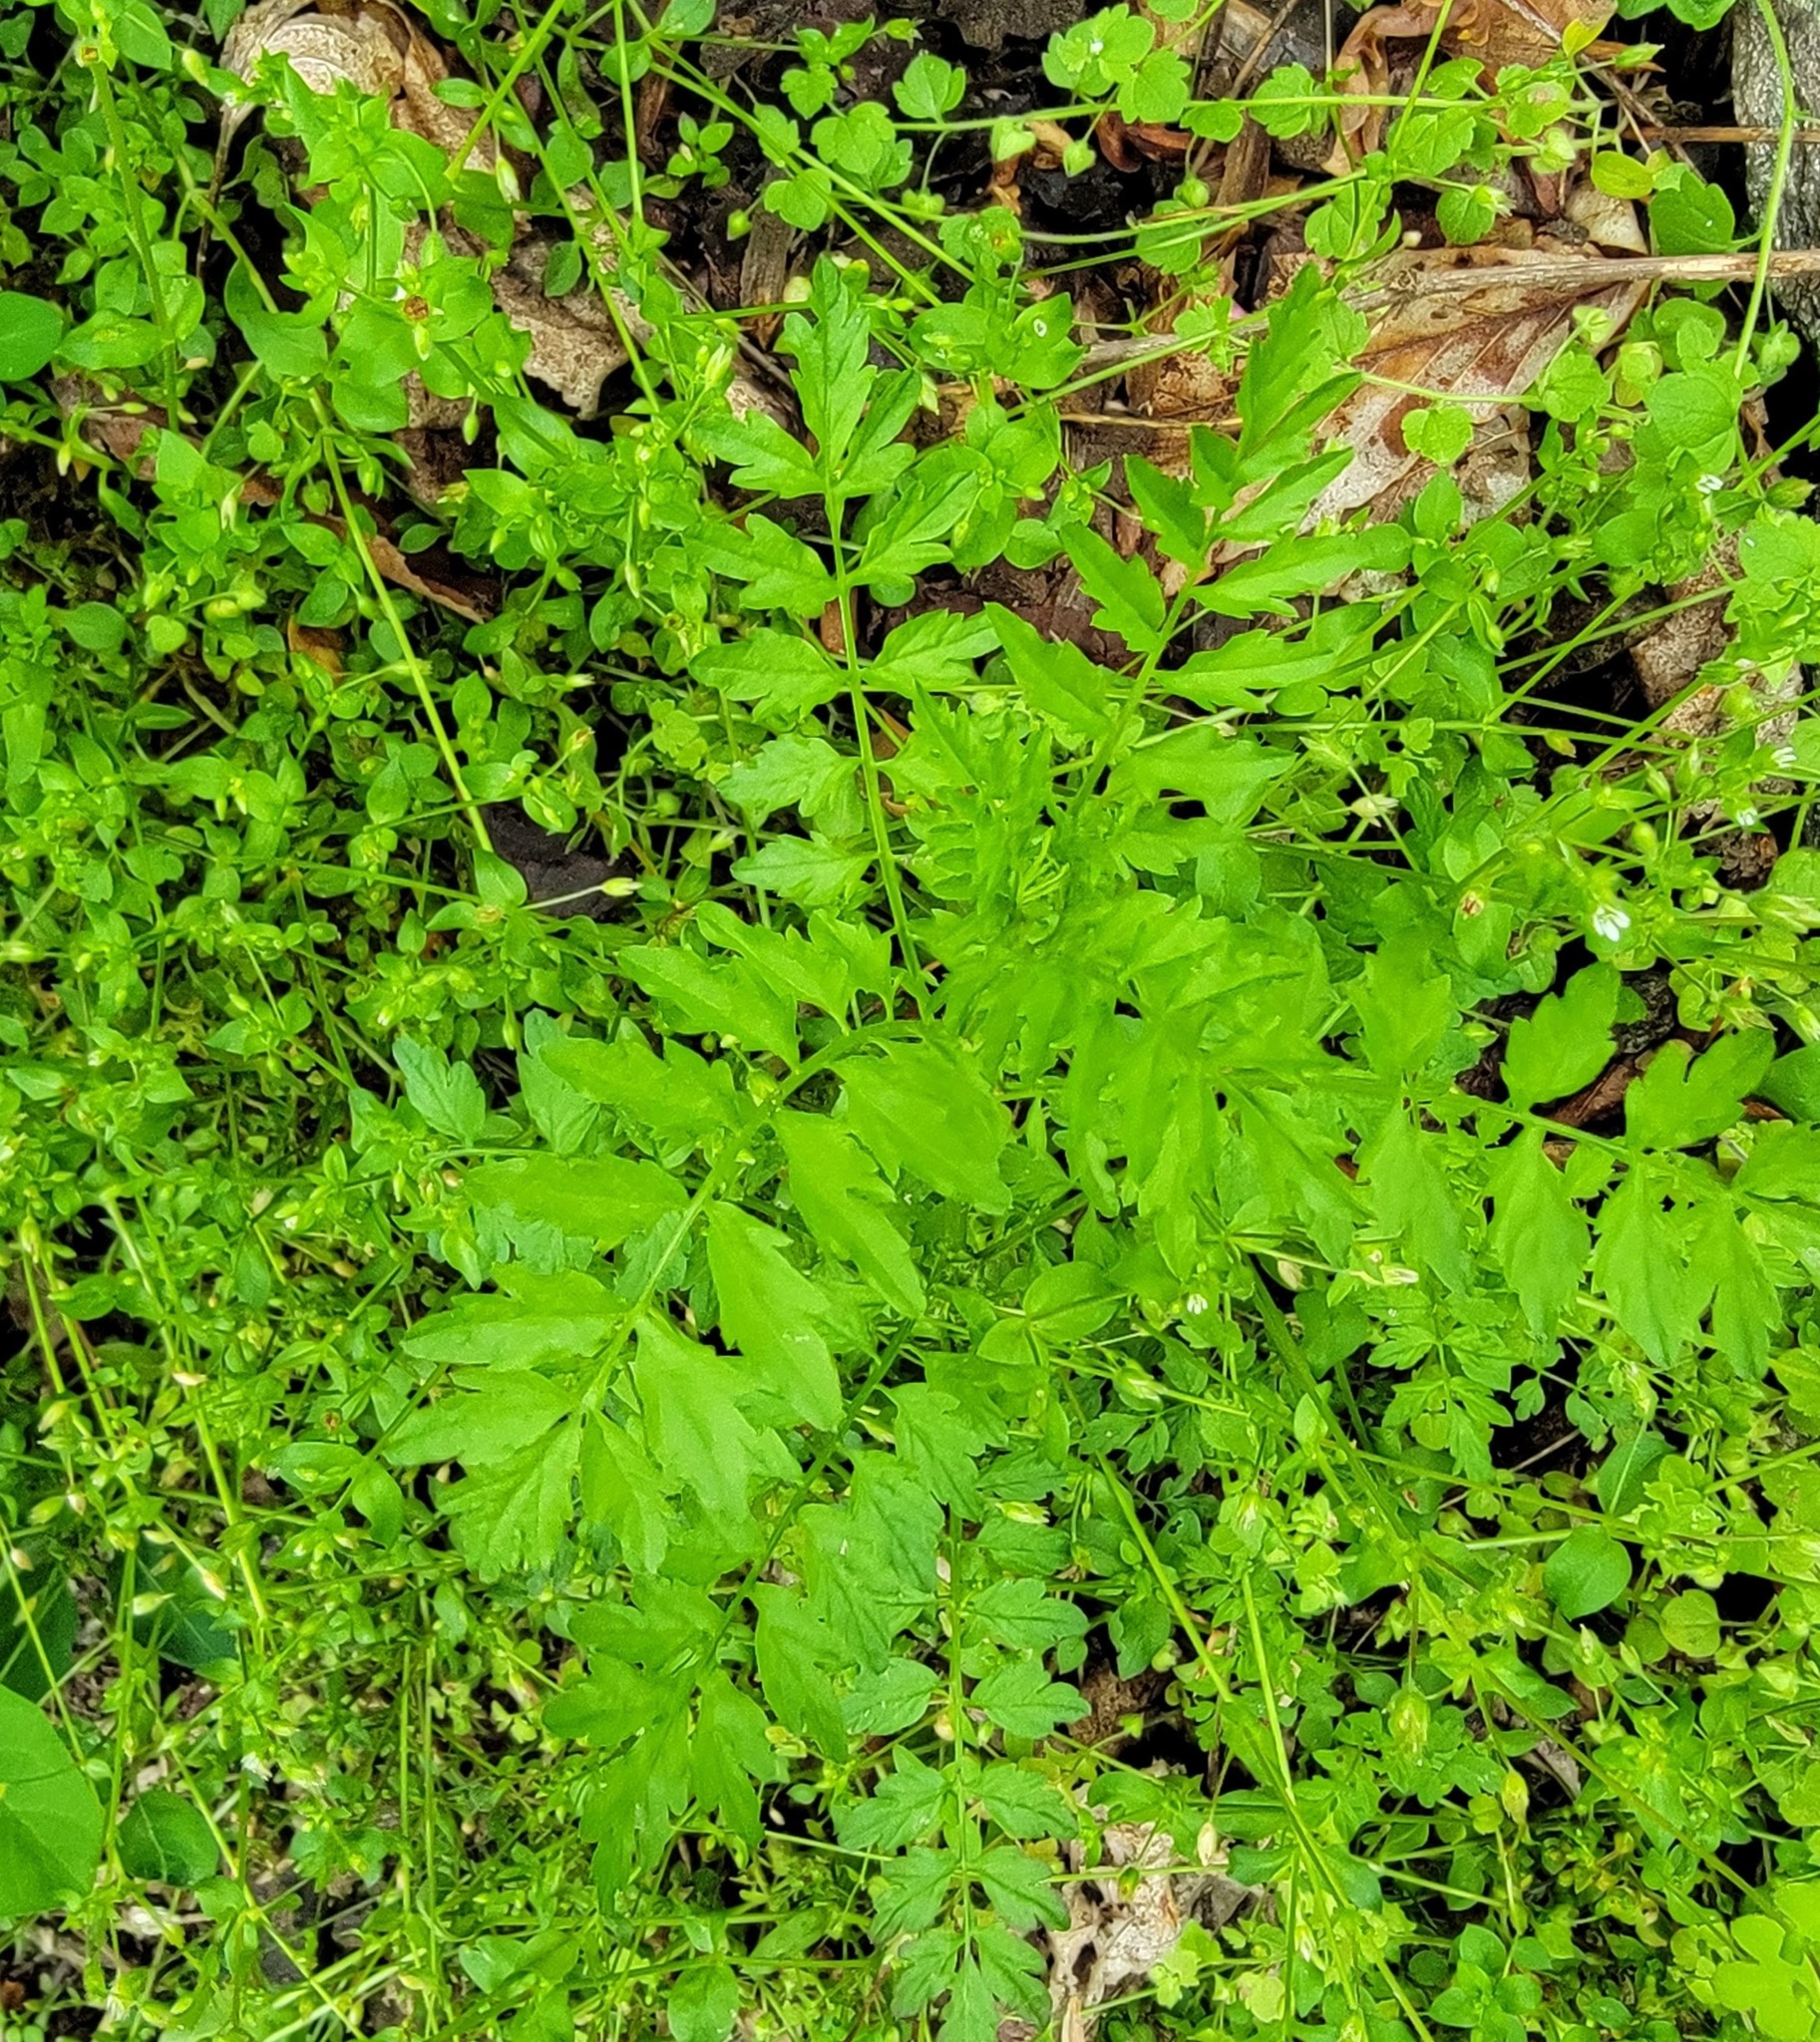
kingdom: Plantae
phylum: Tracheophyta
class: Magnoliopsida
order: Brassicales
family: Brassicaceae
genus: Cardamine
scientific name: Cardamine impatiens
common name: Narrow-leaved bitter-cress
